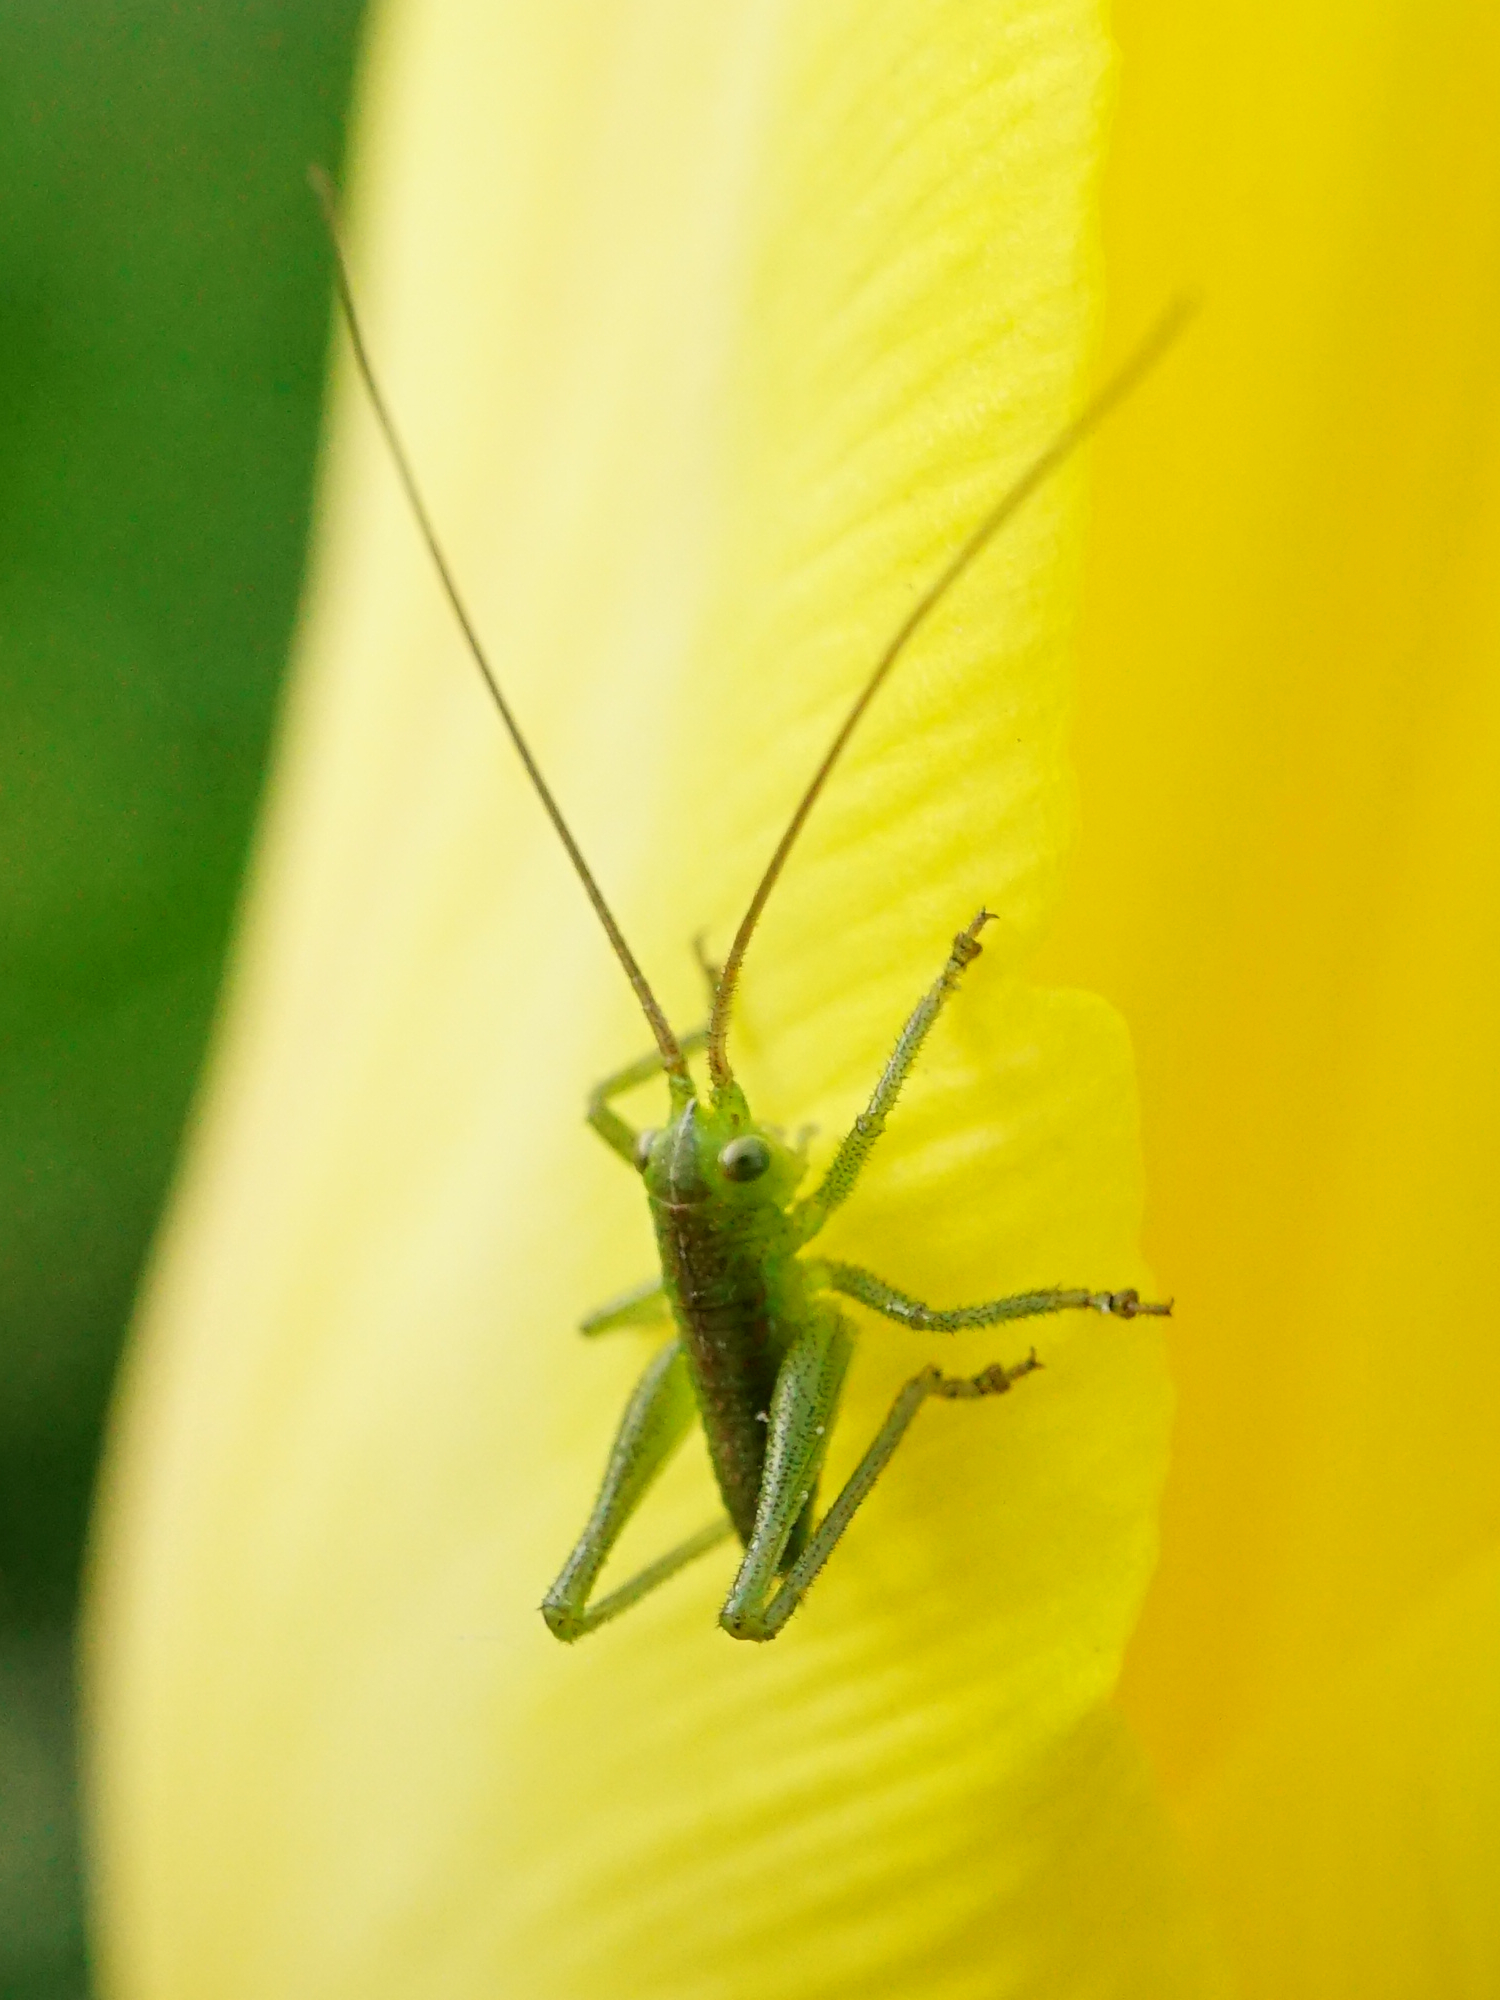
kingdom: Animalia
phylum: Arthropoda
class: Insecta
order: Orthoptera
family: Tettigoniidae
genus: Tettigonia
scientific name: Tettigonia viridissima
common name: Great green bush-cricket
